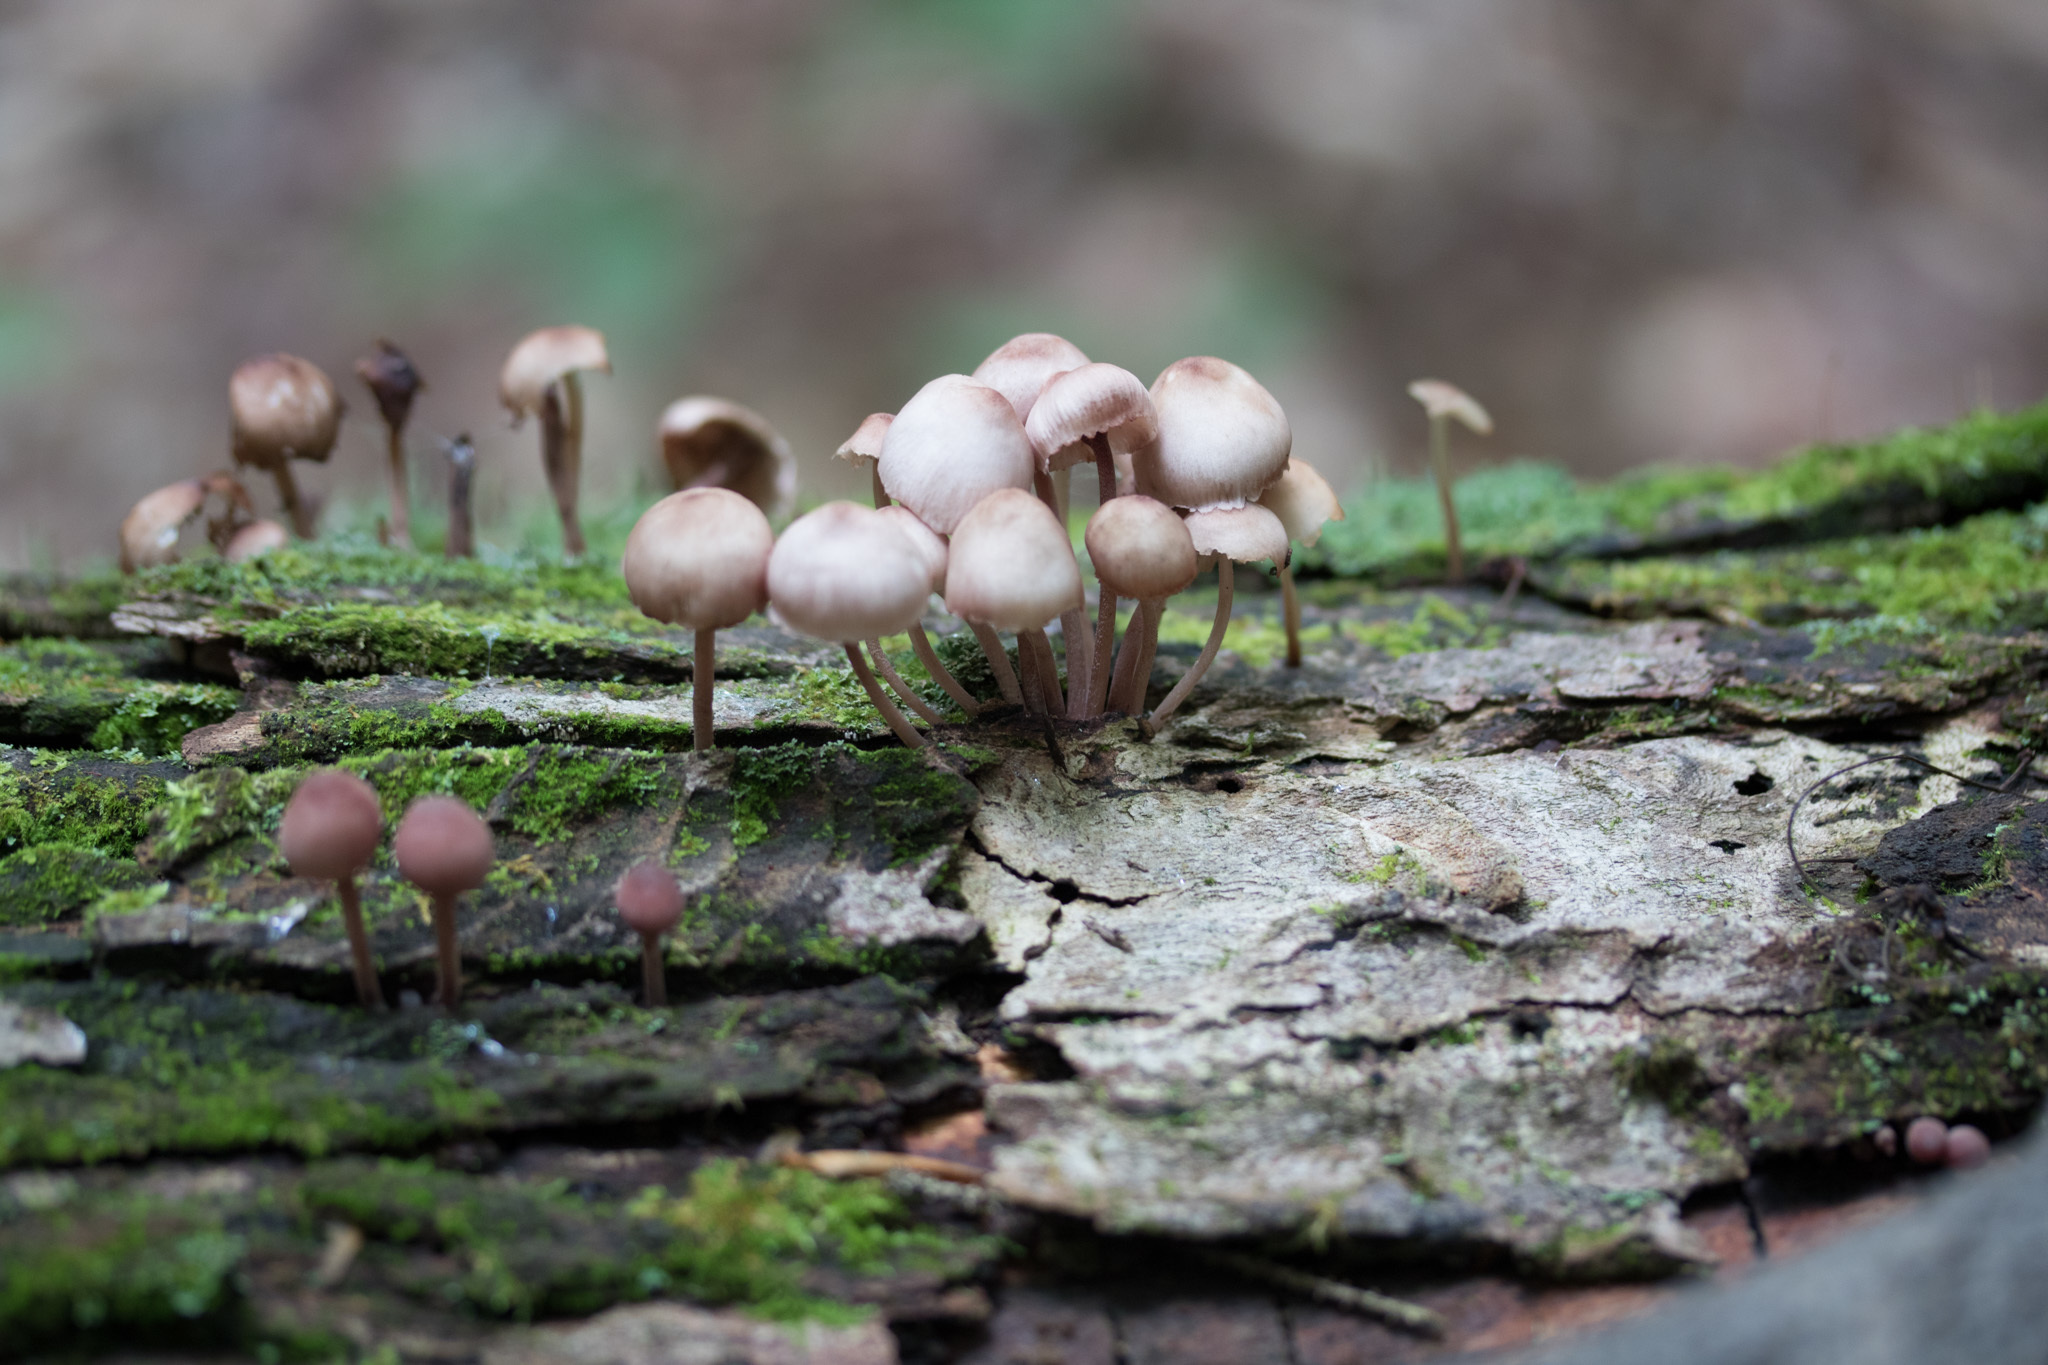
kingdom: Fungi
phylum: Basidiomycota
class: Agaricomycetes
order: Agaricales
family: Mycenaceae
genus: Mycena
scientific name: Mycena haematopus
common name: Burgundydrop bonnet
